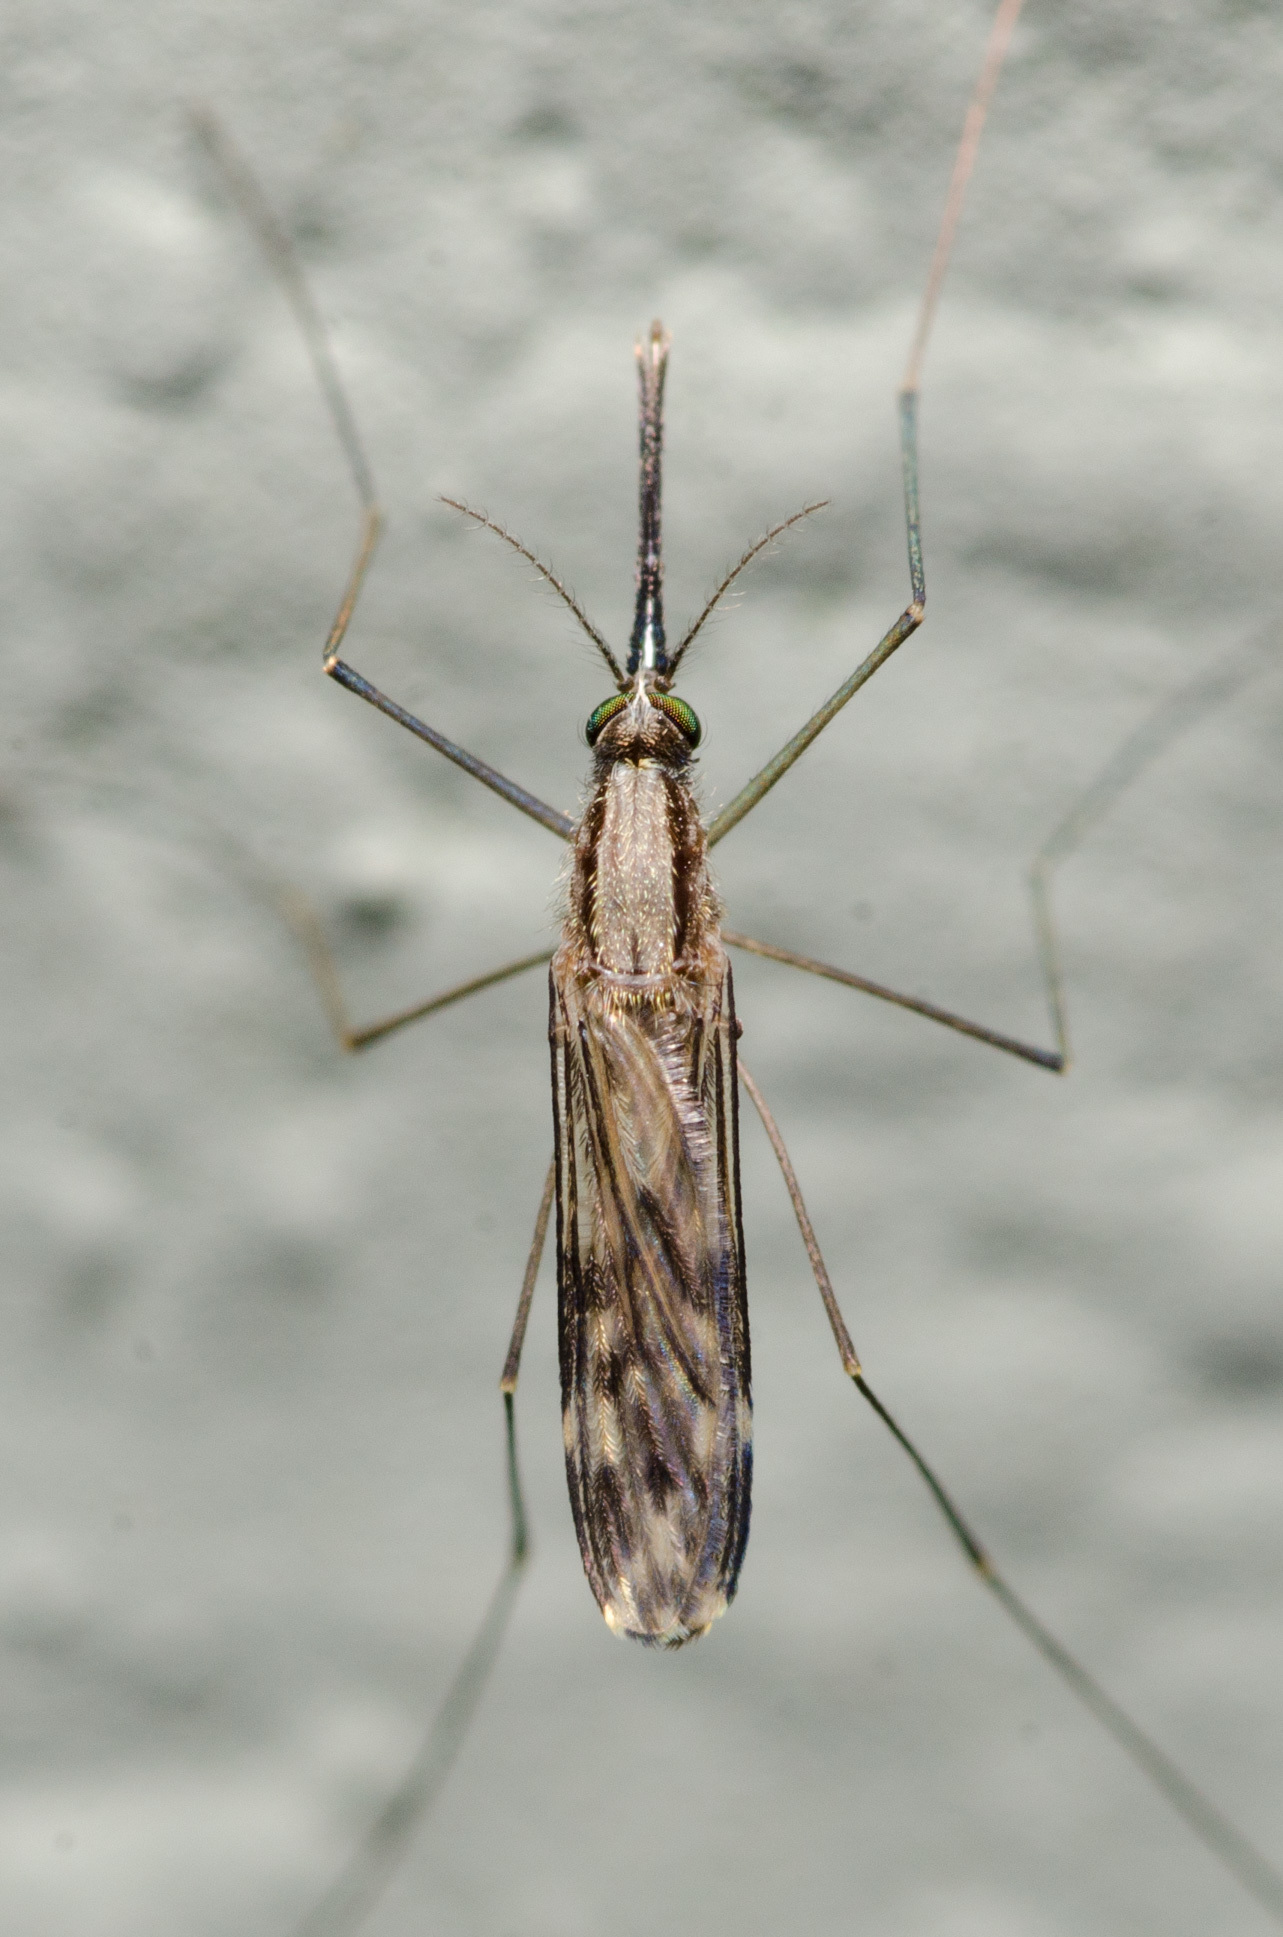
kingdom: Animalia
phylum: Arthropoda
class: Insecta
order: Diptera
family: Culicidae
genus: Anopheles
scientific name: Anopheles perplexens
